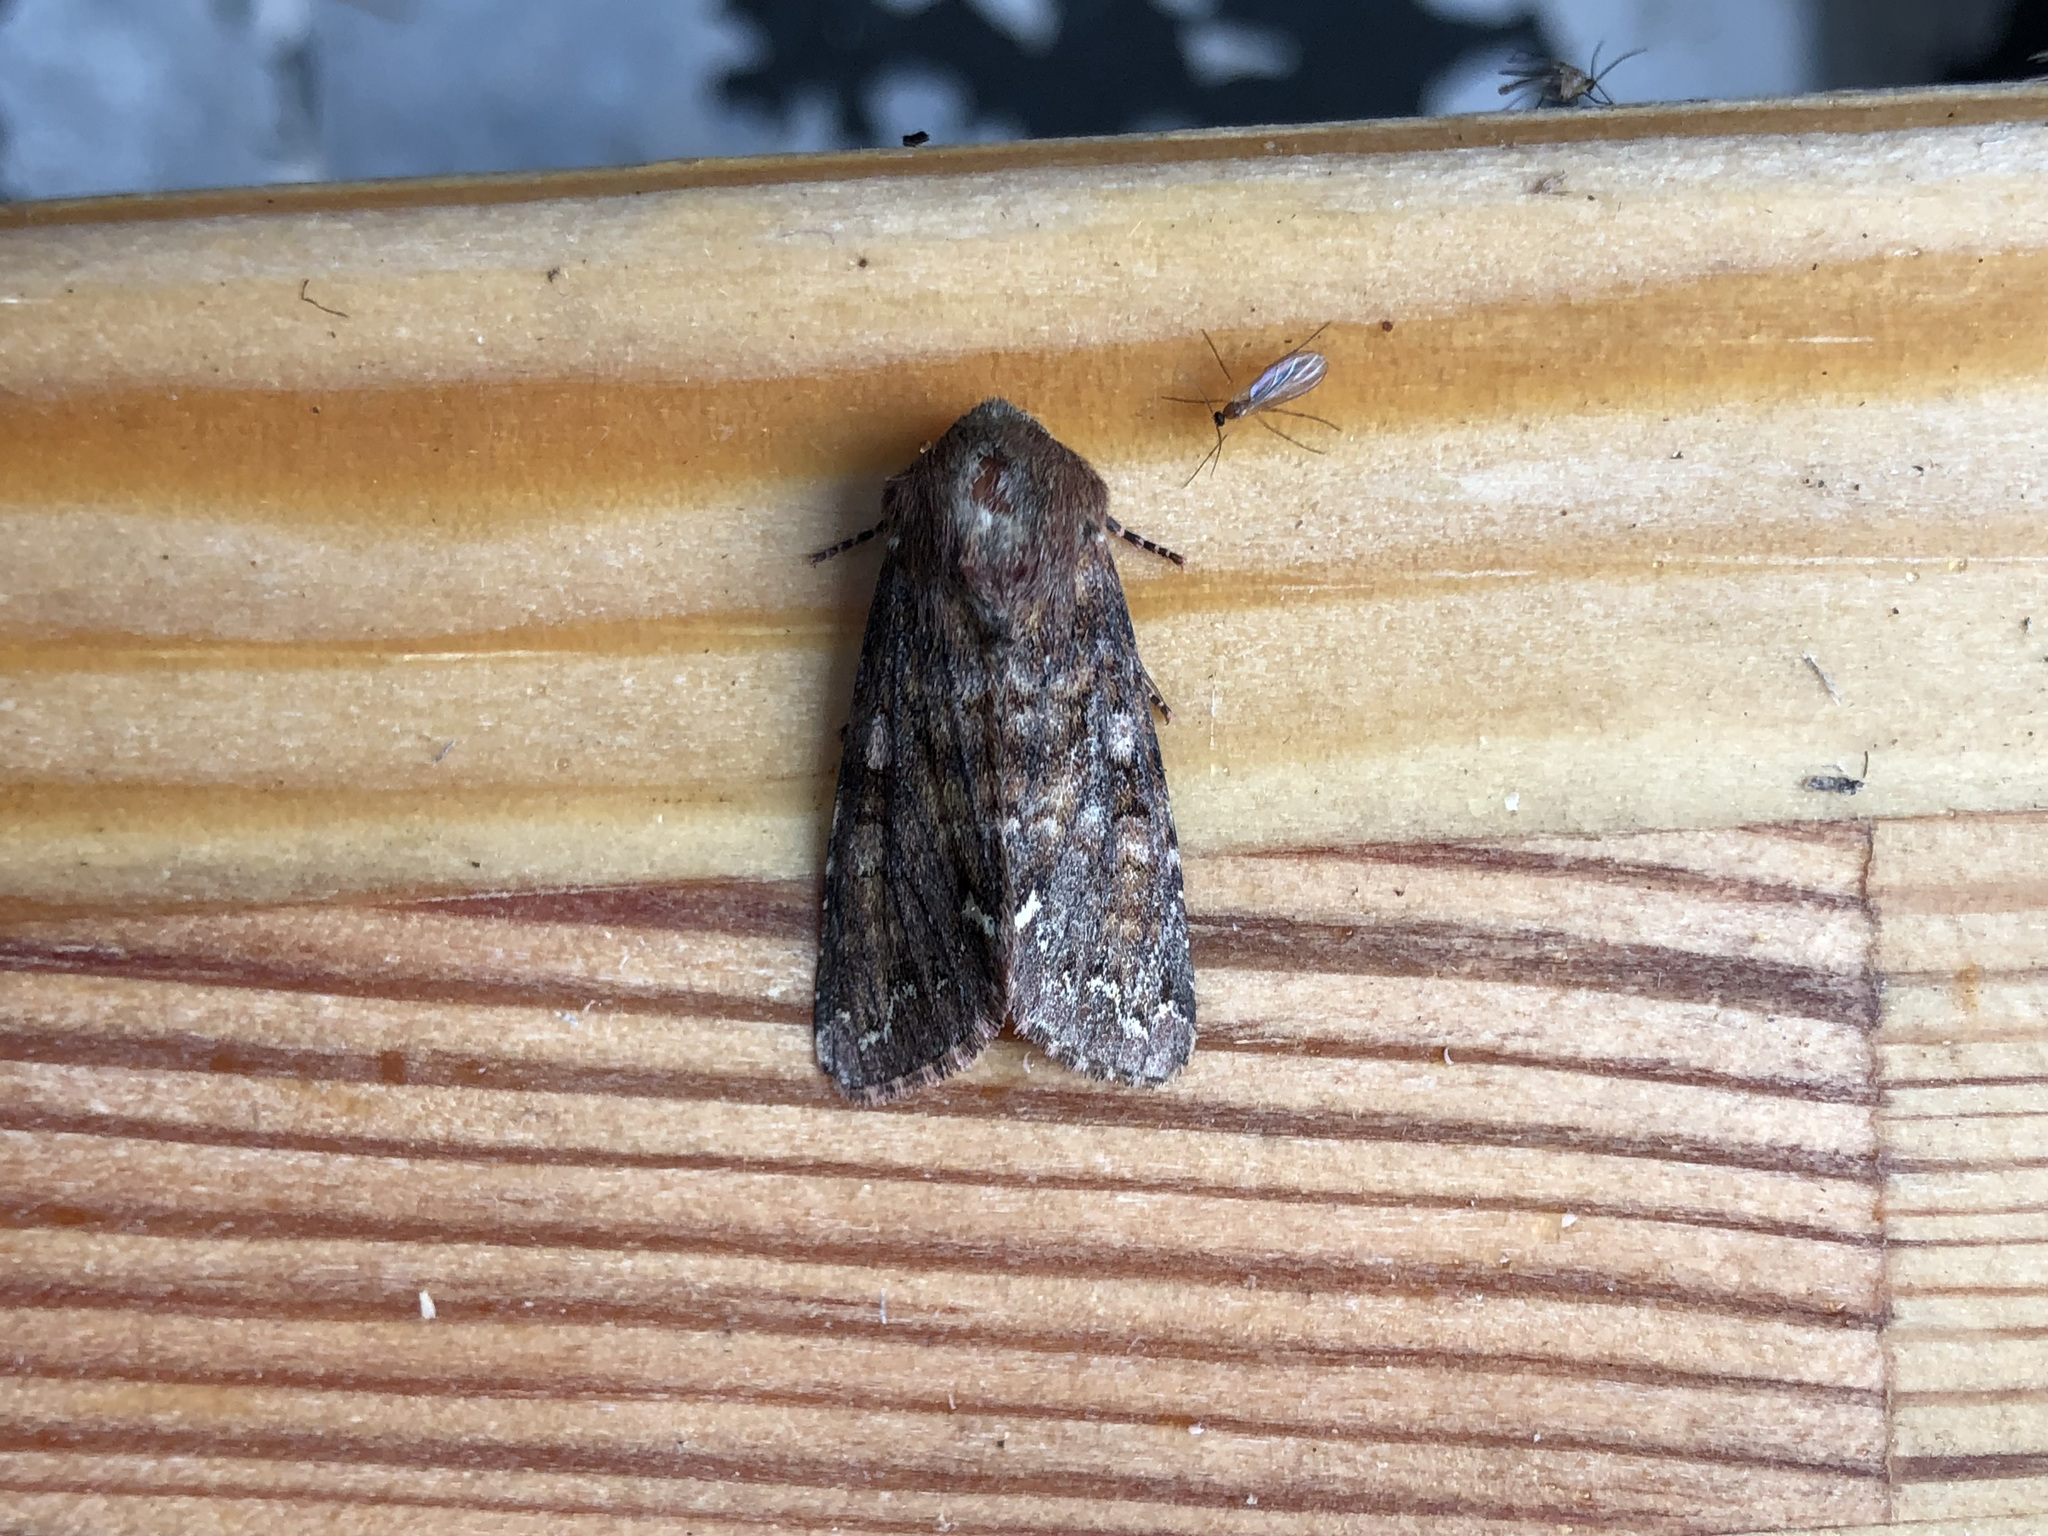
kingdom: Animalia
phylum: Arthropoda
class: Insecta
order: Lepidoptera
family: Noctuidae
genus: Ceramica
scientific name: Ceramica pisi
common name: Broom moth
